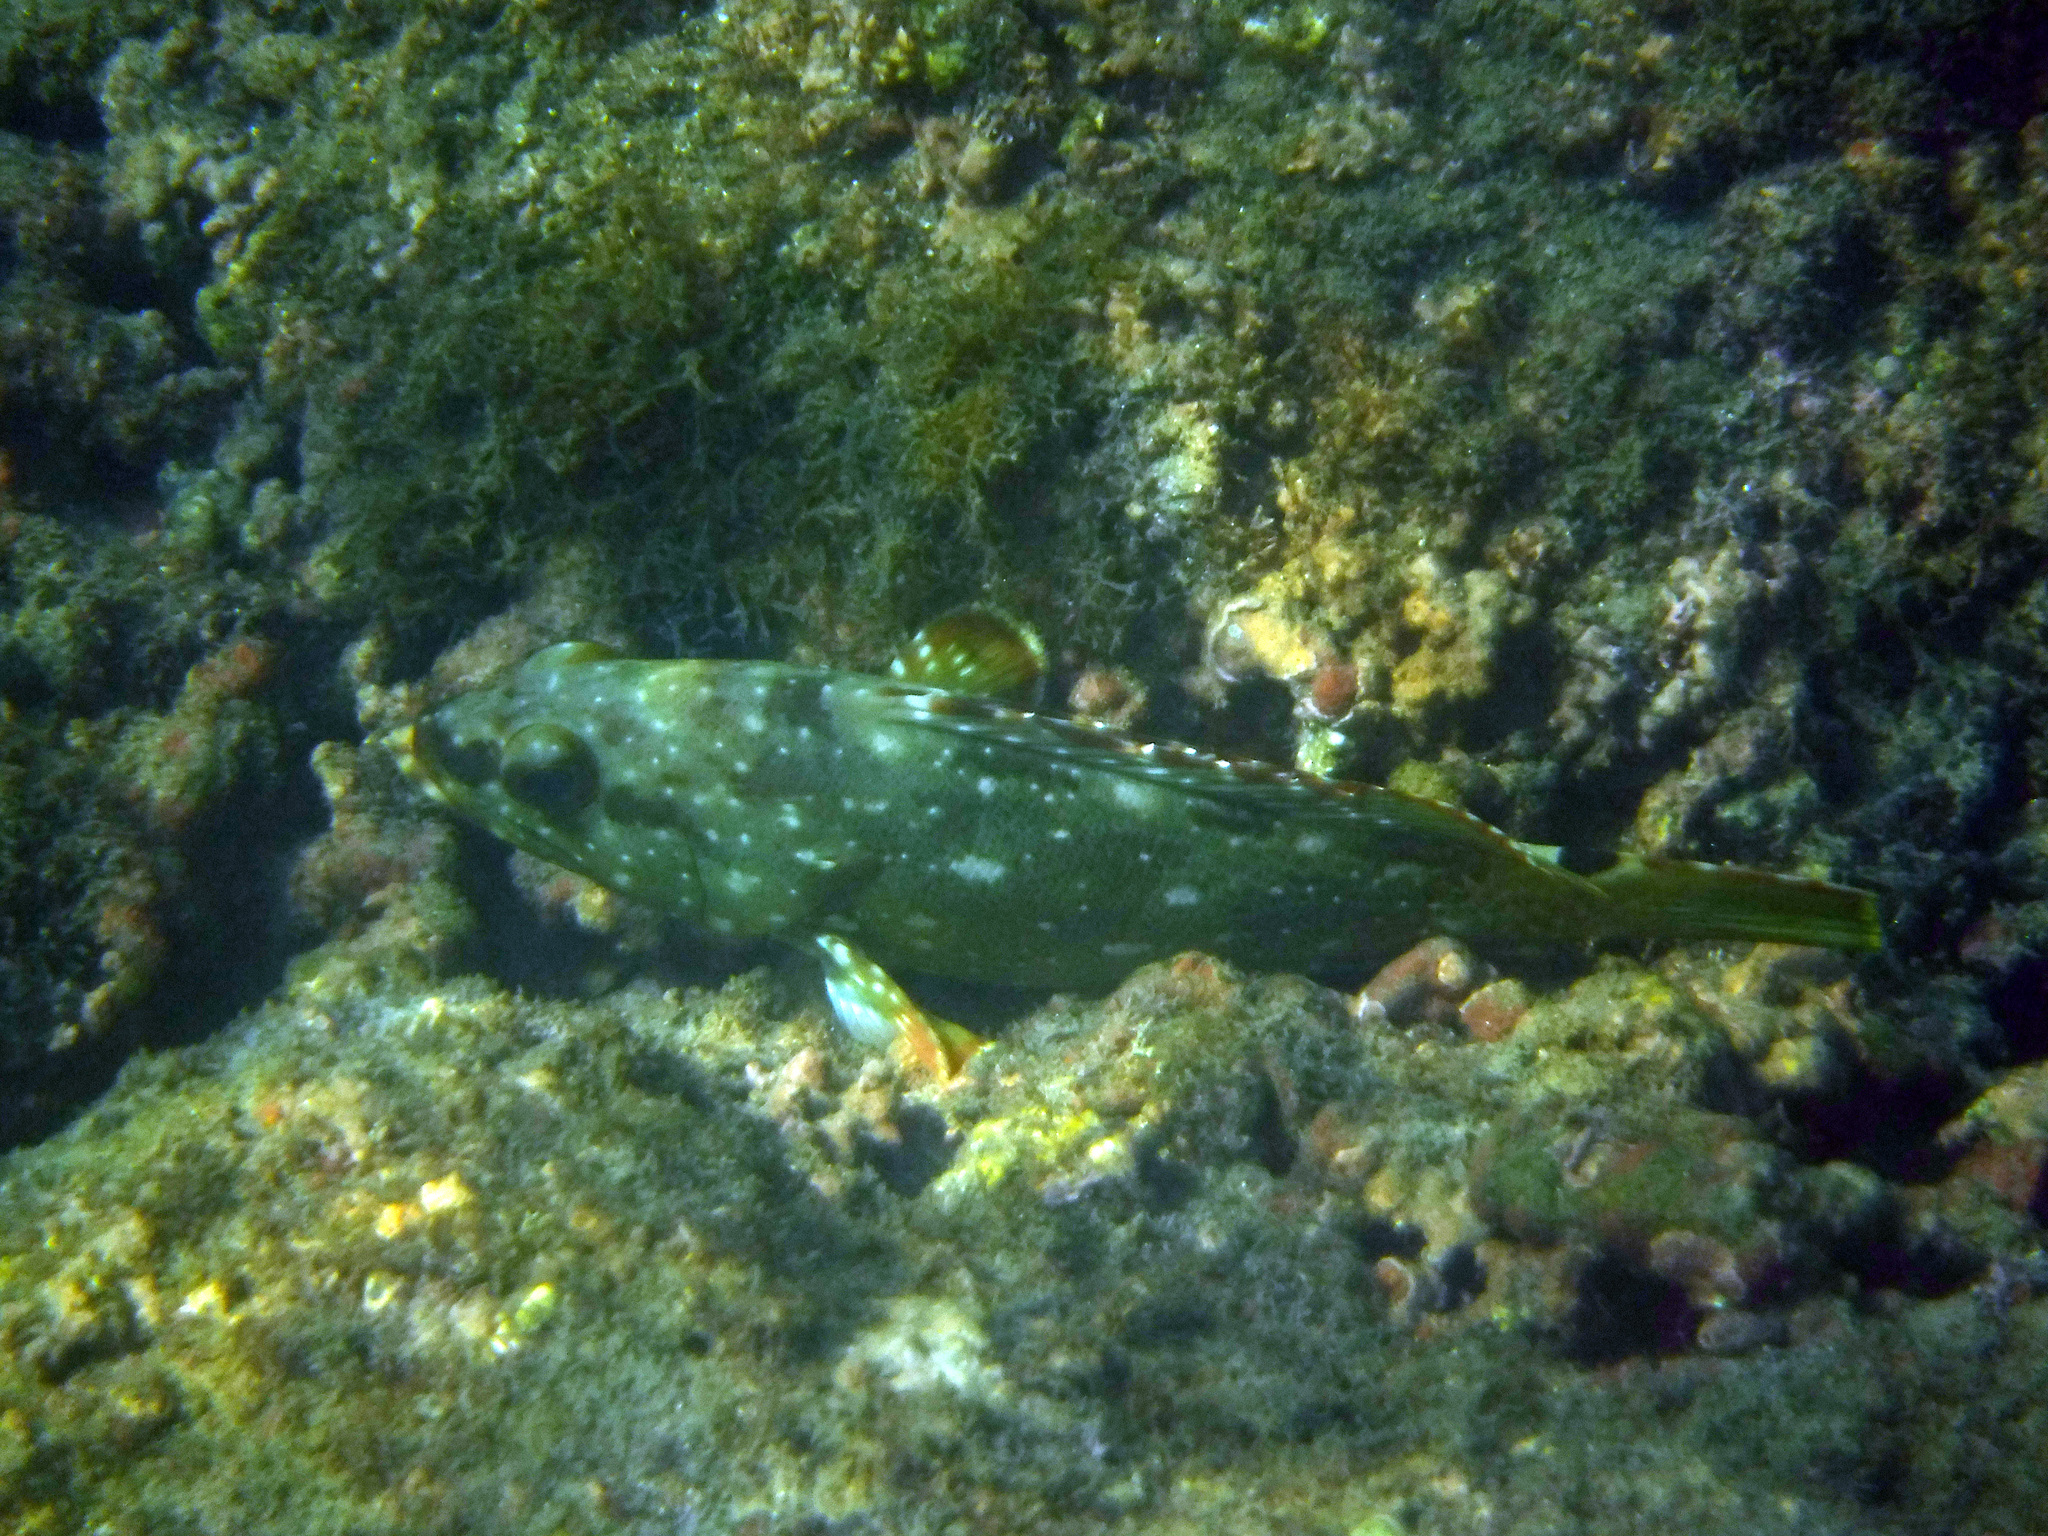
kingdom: Animalia
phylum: Chordata
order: Perciformes
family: Serranidae
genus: Epinephelus
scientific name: Epinephelus labriformis
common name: Flag cabrilla
